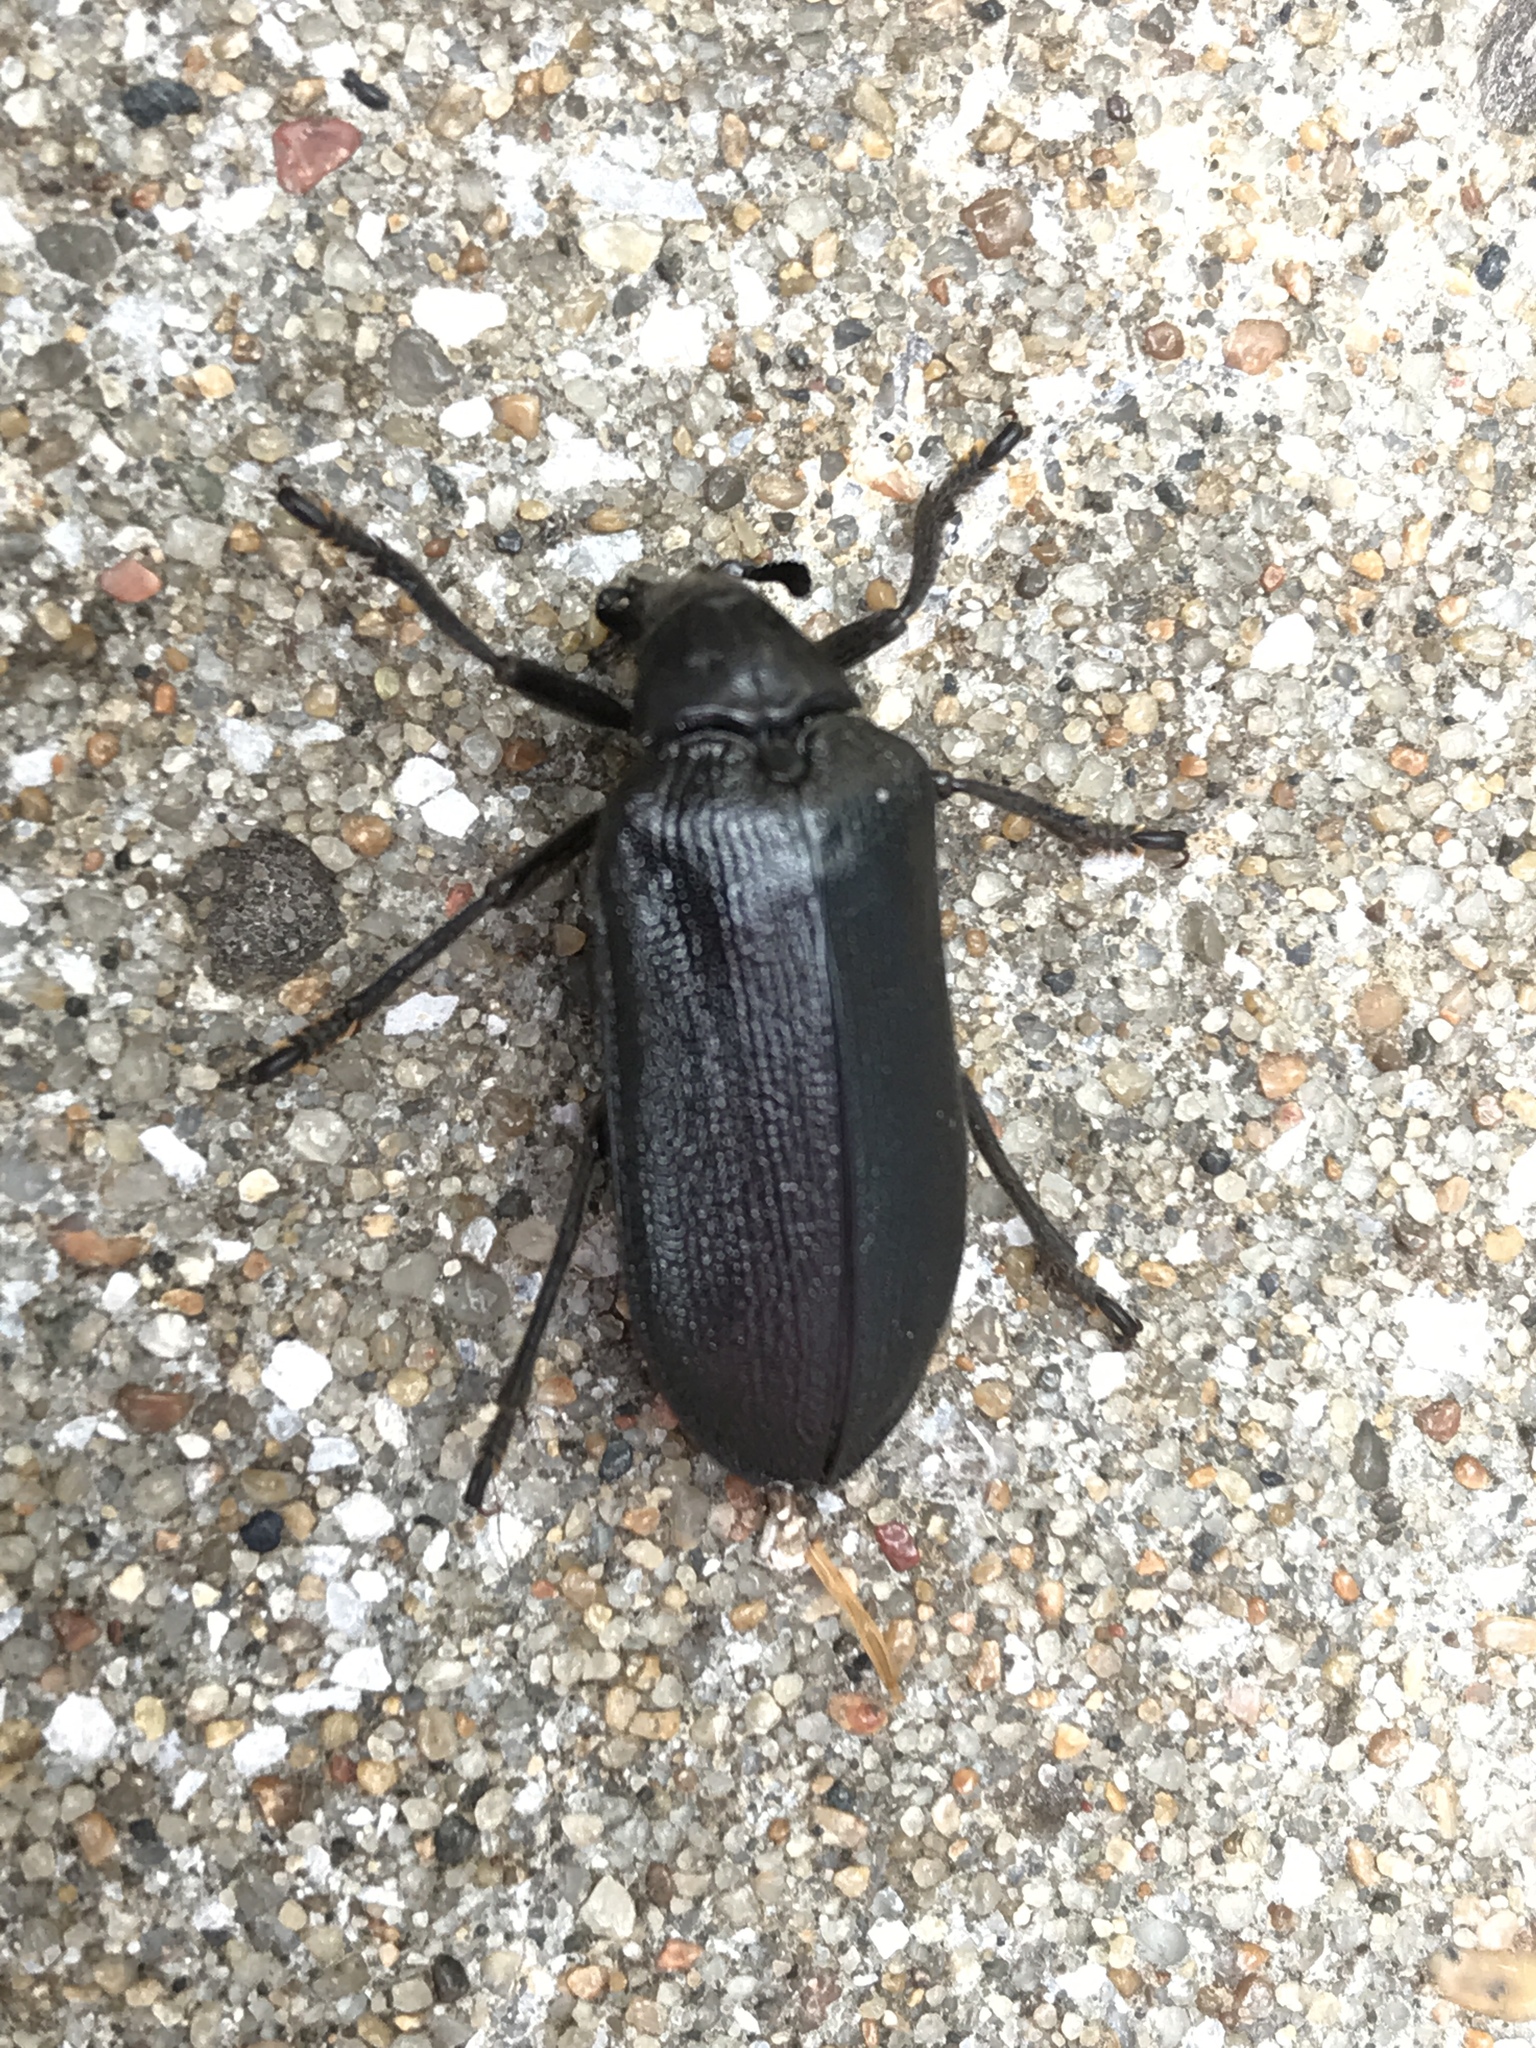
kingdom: Animalia
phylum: Arthropoda
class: Insecta
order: Coleoptera
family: Rhipiceridae
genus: Sandalus
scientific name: Sandalus niger
